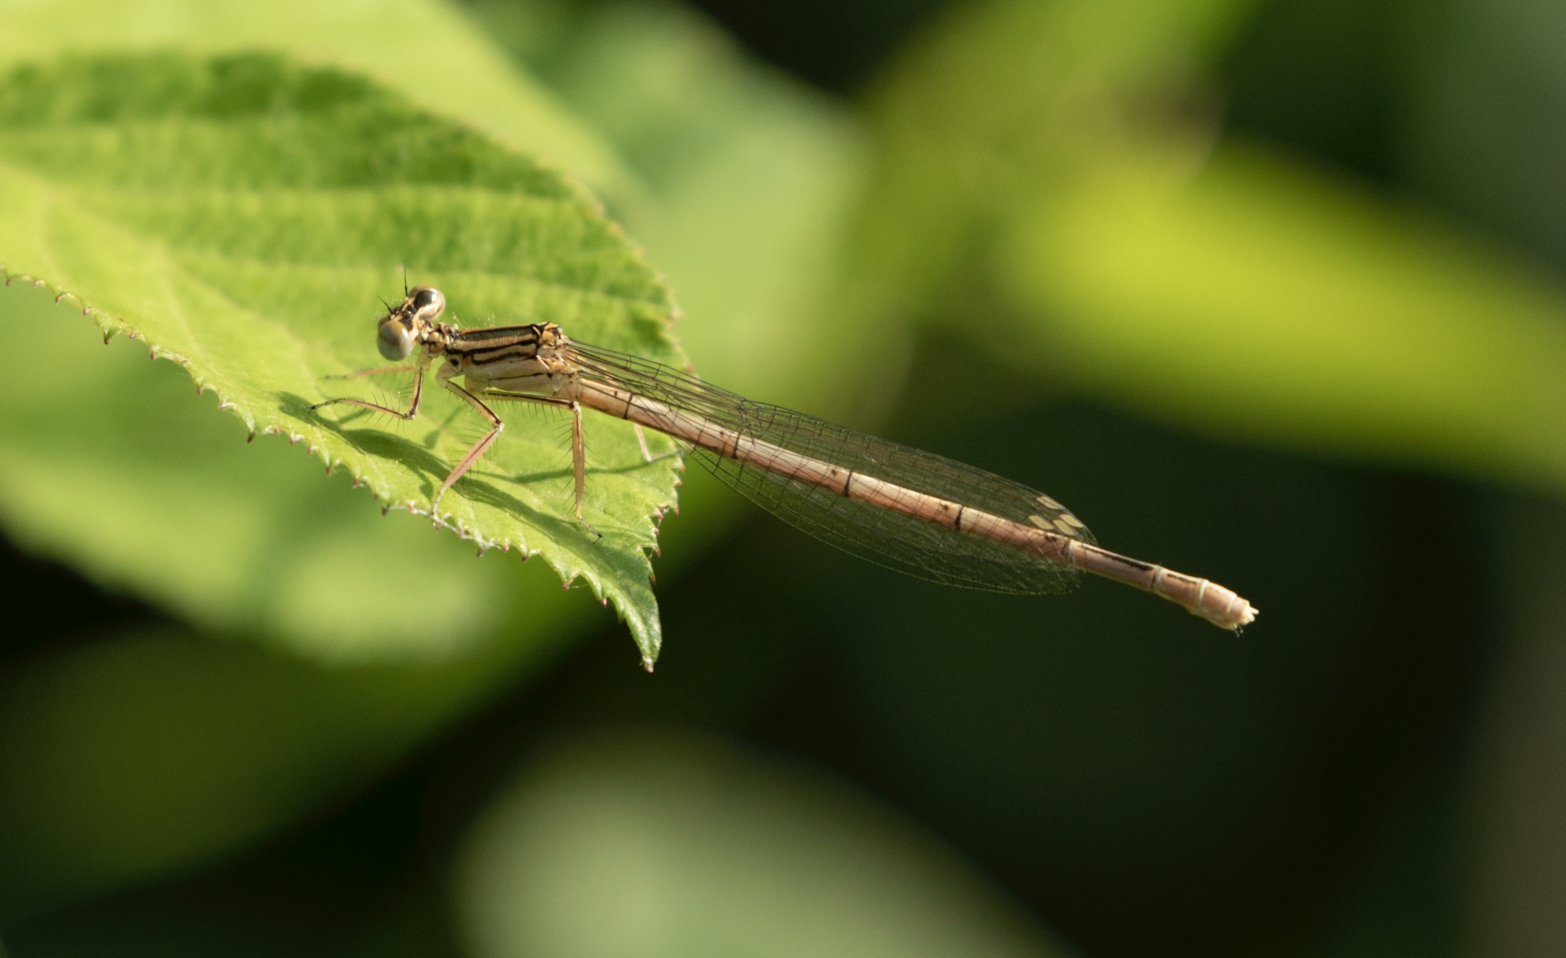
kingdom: Animalia
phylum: Arthropoda
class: Insecta
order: Odonata
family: Platycnemididae
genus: Platycnemis
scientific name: Platycnemis pennipes
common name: White-legged damselfly
